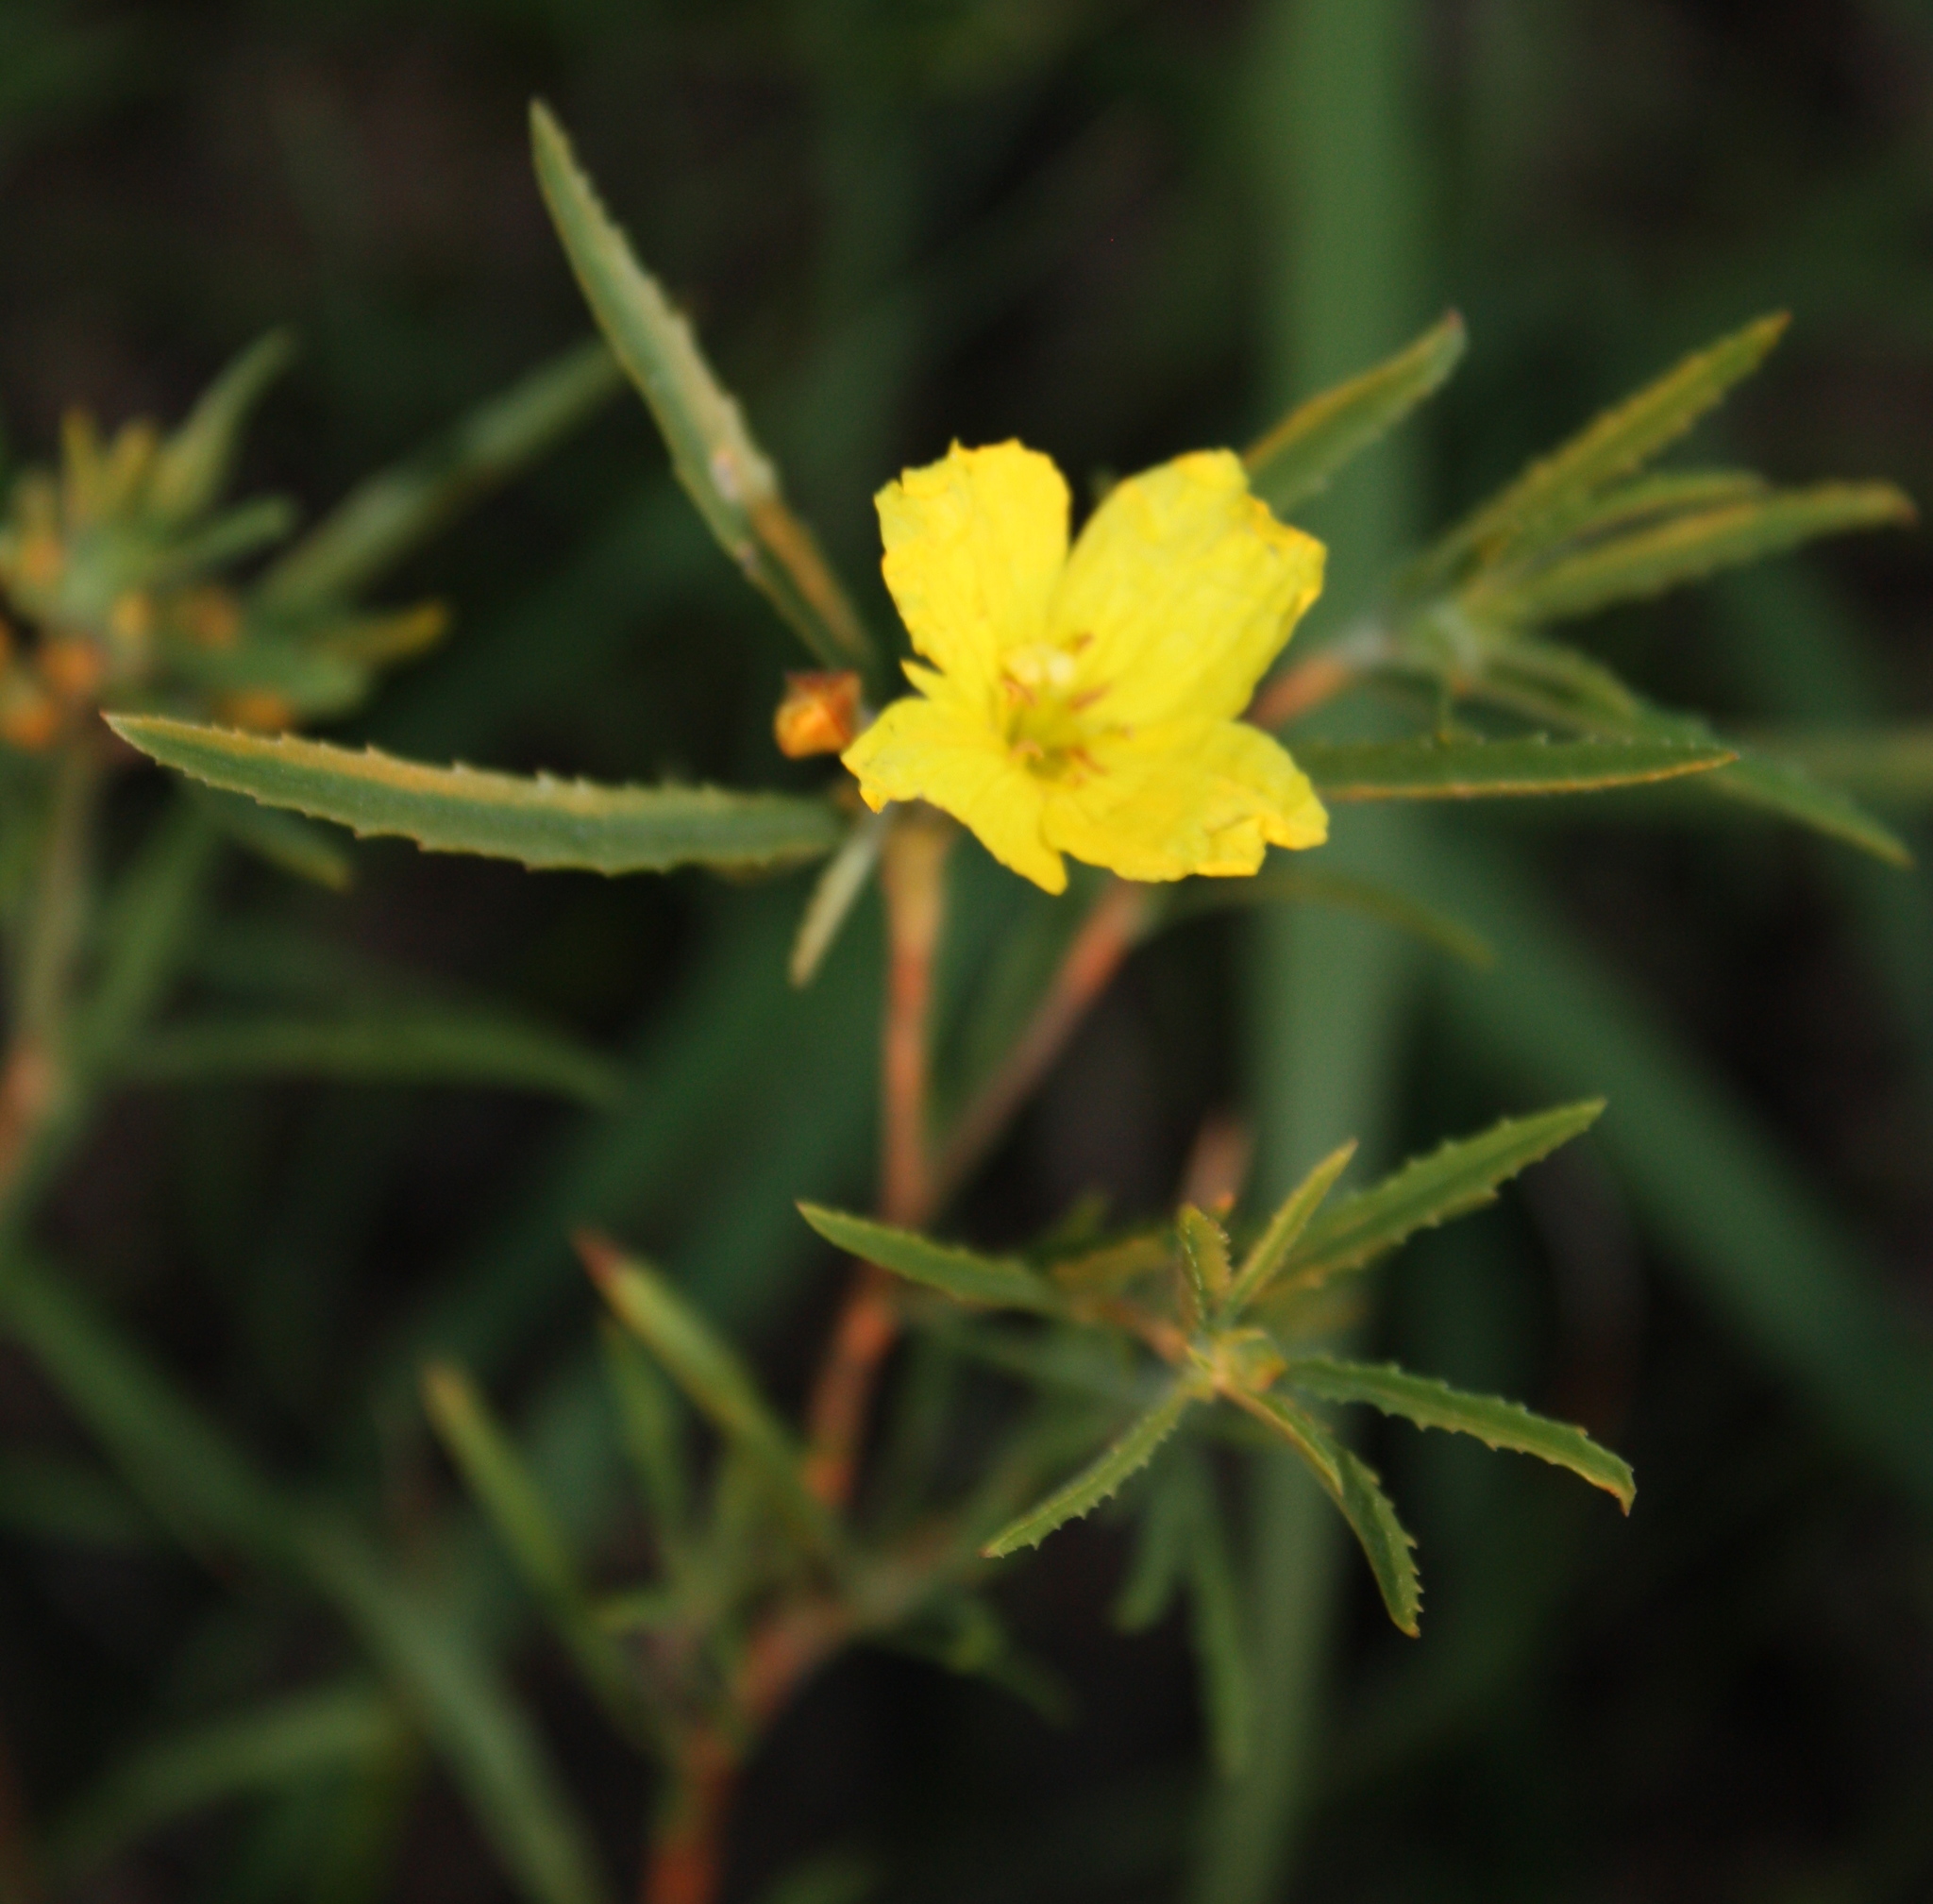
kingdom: Plantae
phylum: Tracheophyta
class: Magnoliopsida
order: Myrtales
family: Onagraceae
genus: Oenothera
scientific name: Oenothera serrulata
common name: Half-shrub calylophus
